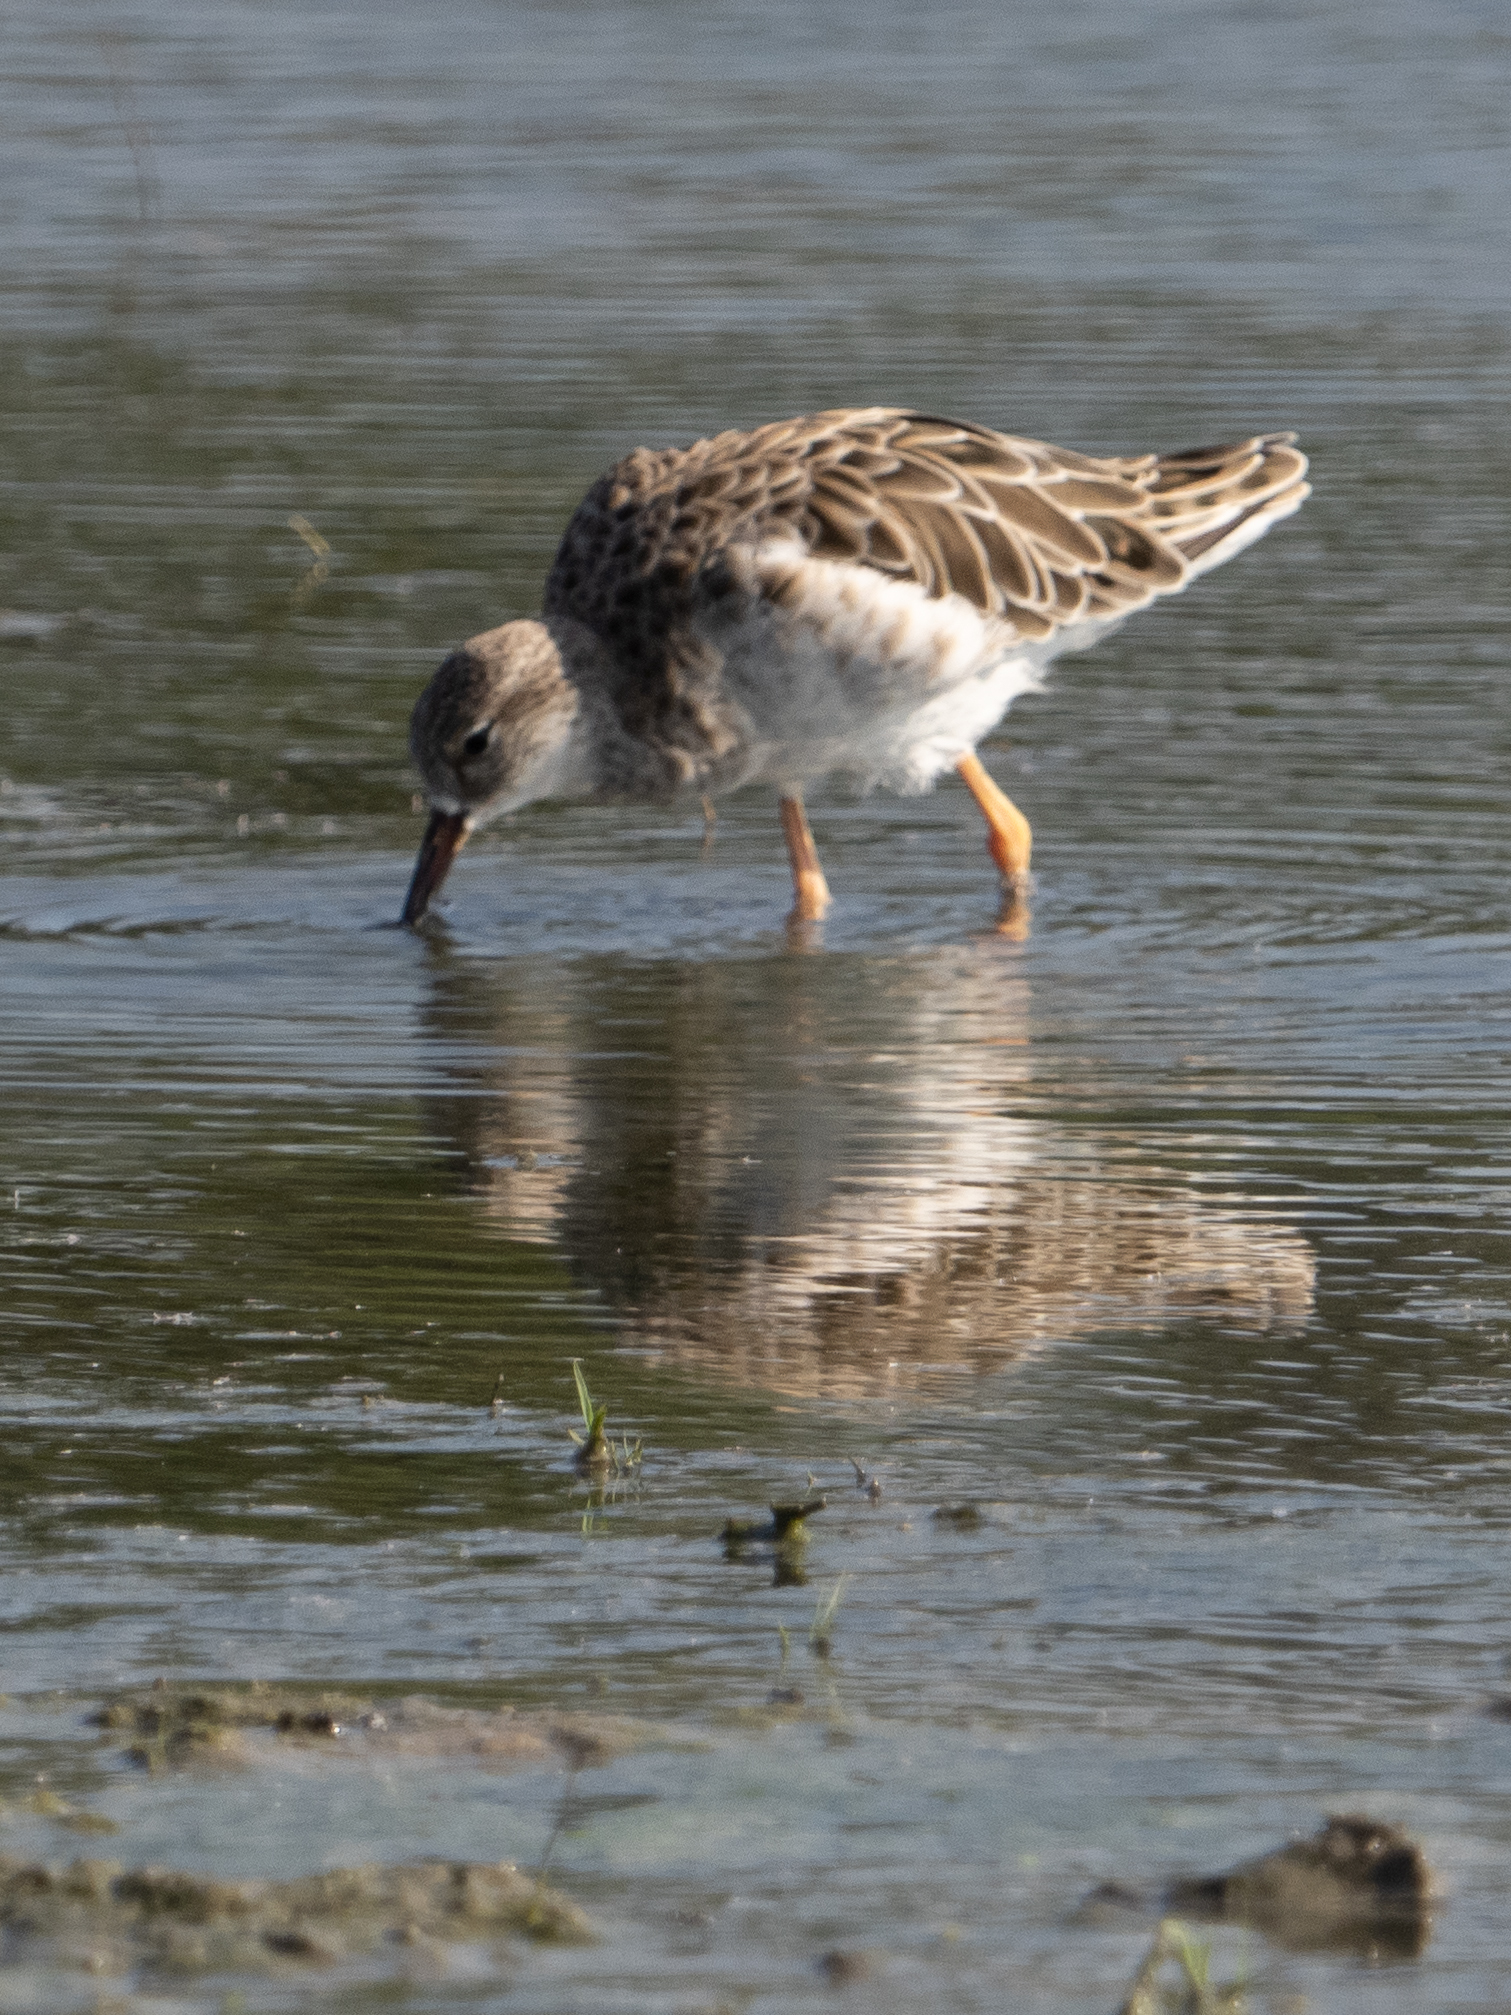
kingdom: Animalia
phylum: Chordata
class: Aves
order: Charadriiformes
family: Scolopacidae
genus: Calidris
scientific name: Calidris pugnax
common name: Ruff
